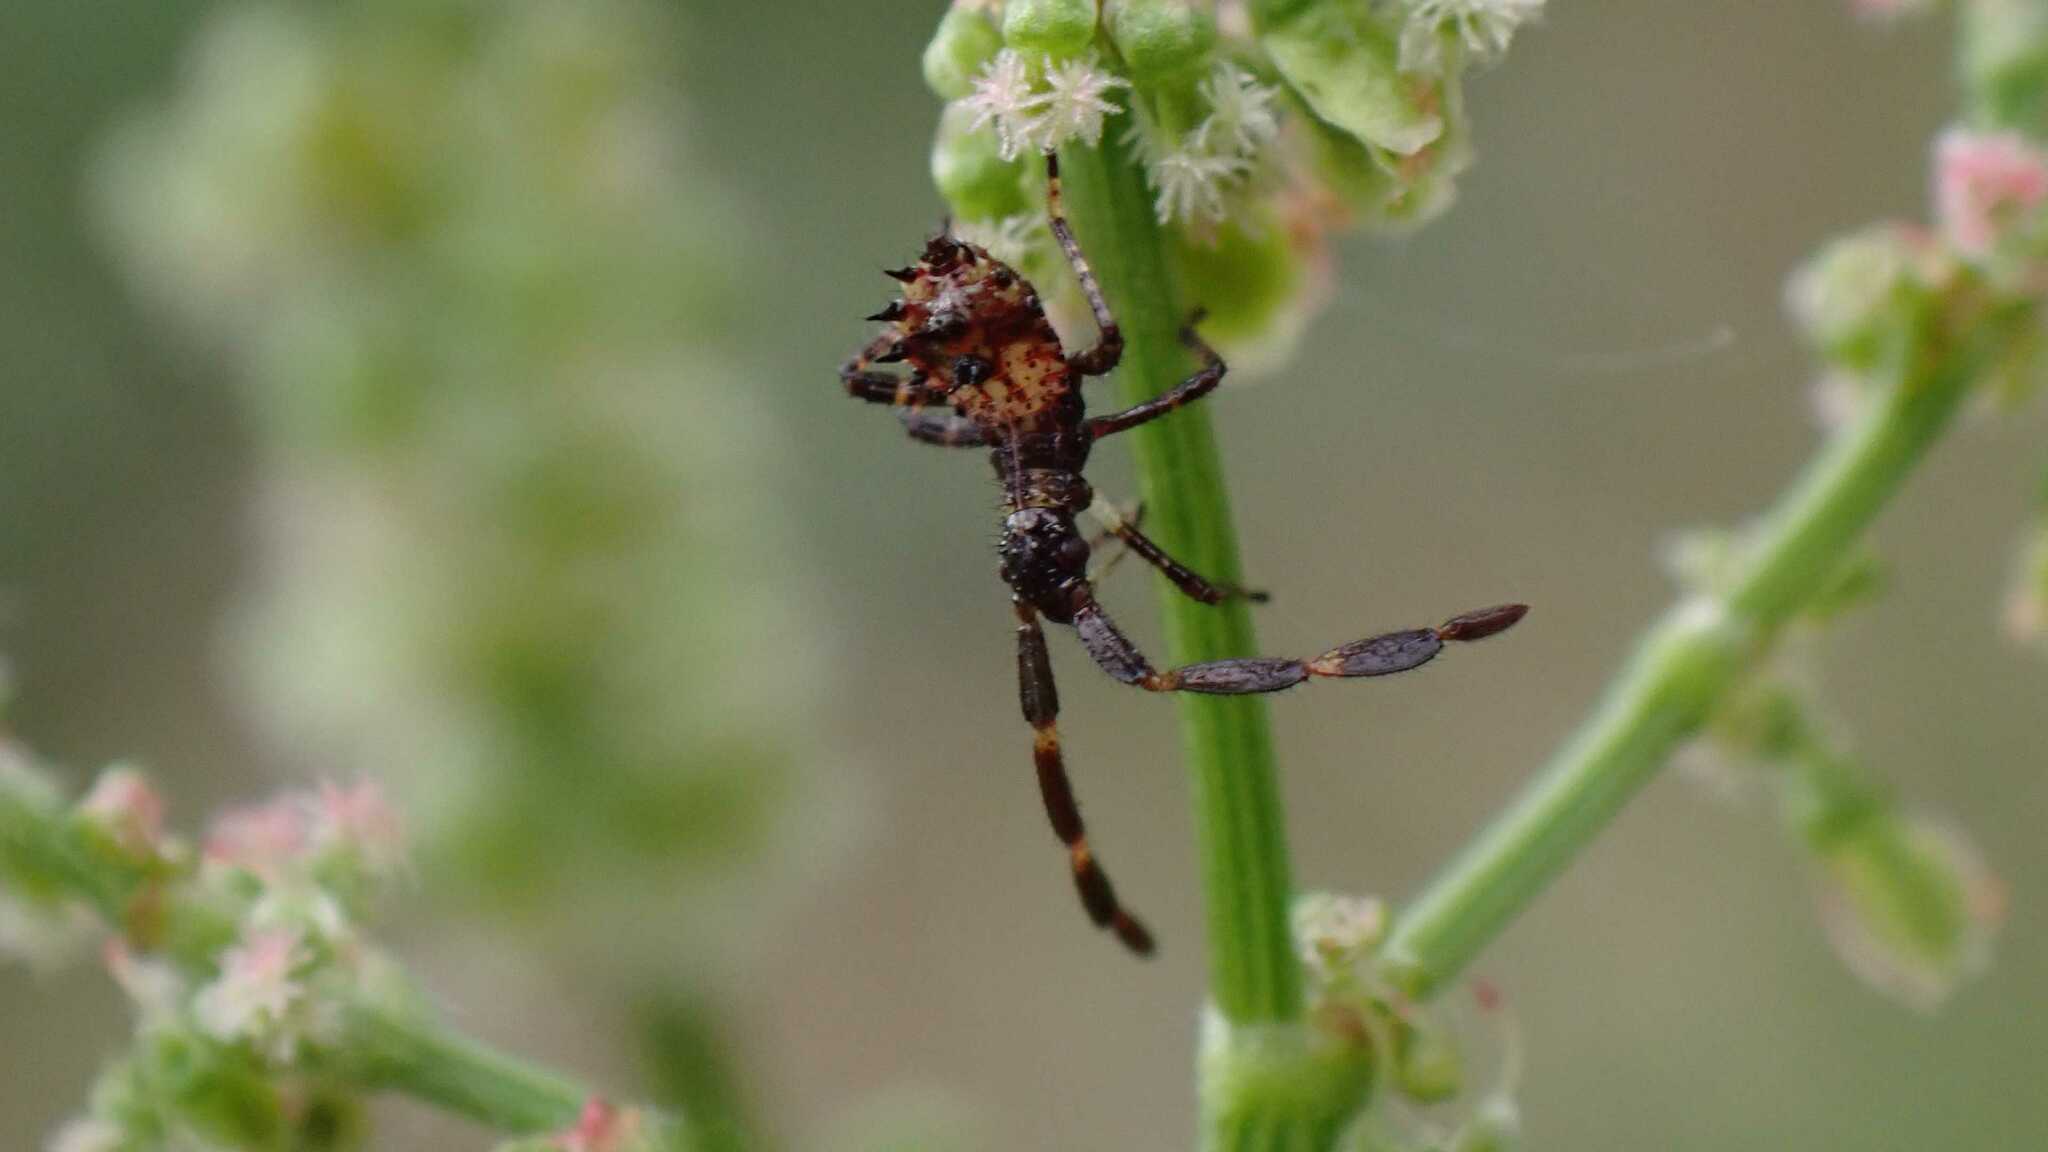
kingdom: Animalia
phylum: Arthropoda
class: Insecta
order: Hemiptera
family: Coreidae
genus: Coreus
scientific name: Coreus marginatus
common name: Dock bug
